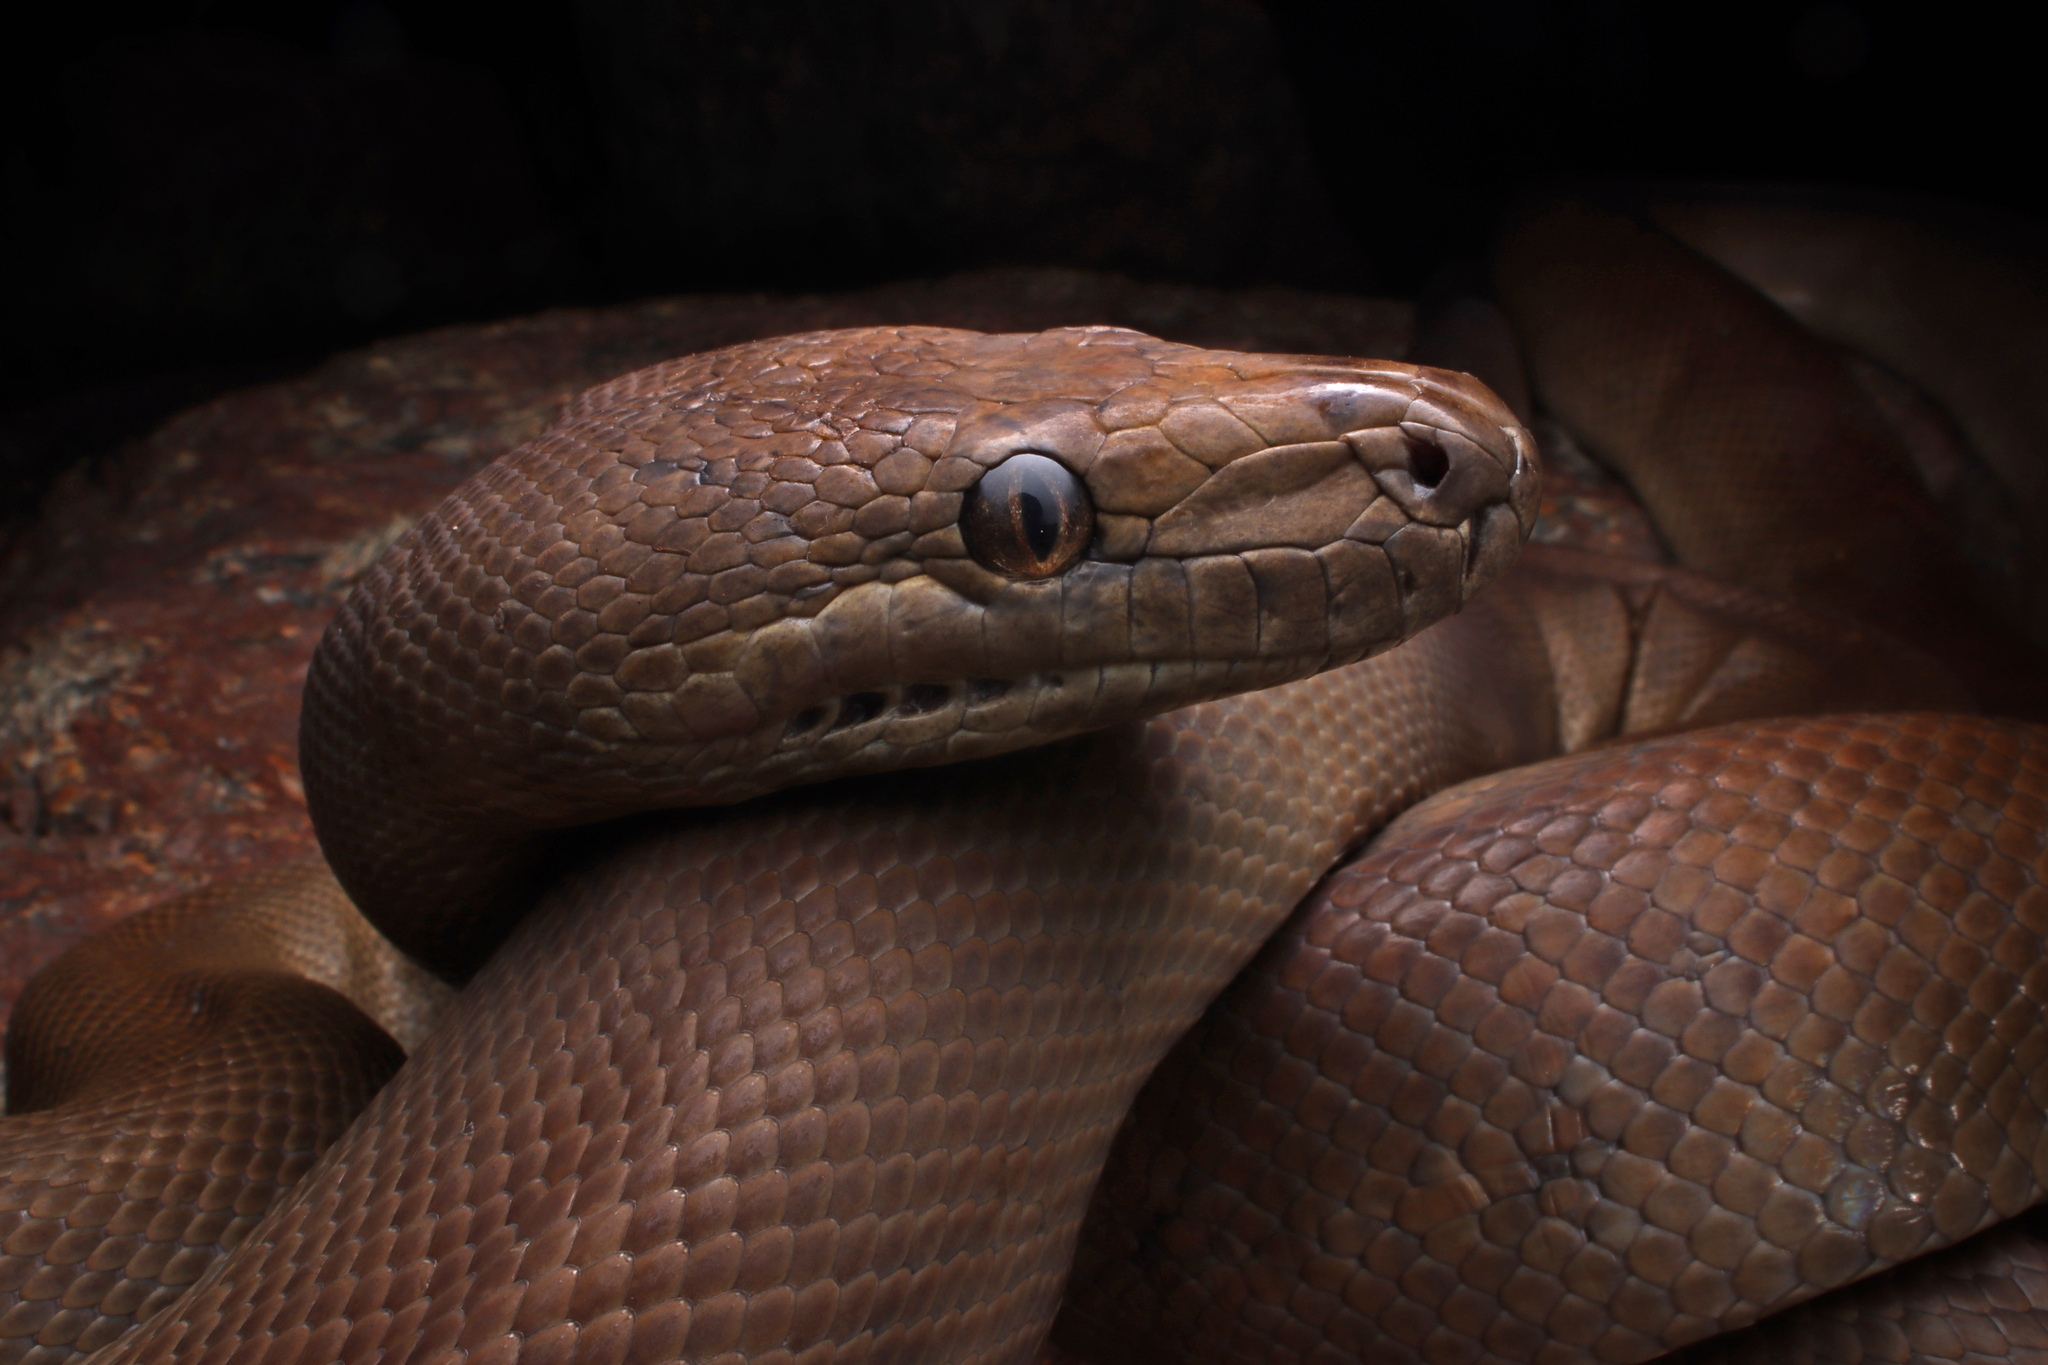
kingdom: Animalia
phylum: Chordata
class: Squamata
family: Pythonidae
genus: Liasis
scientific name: Liasis olivaceus
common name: Olive python
